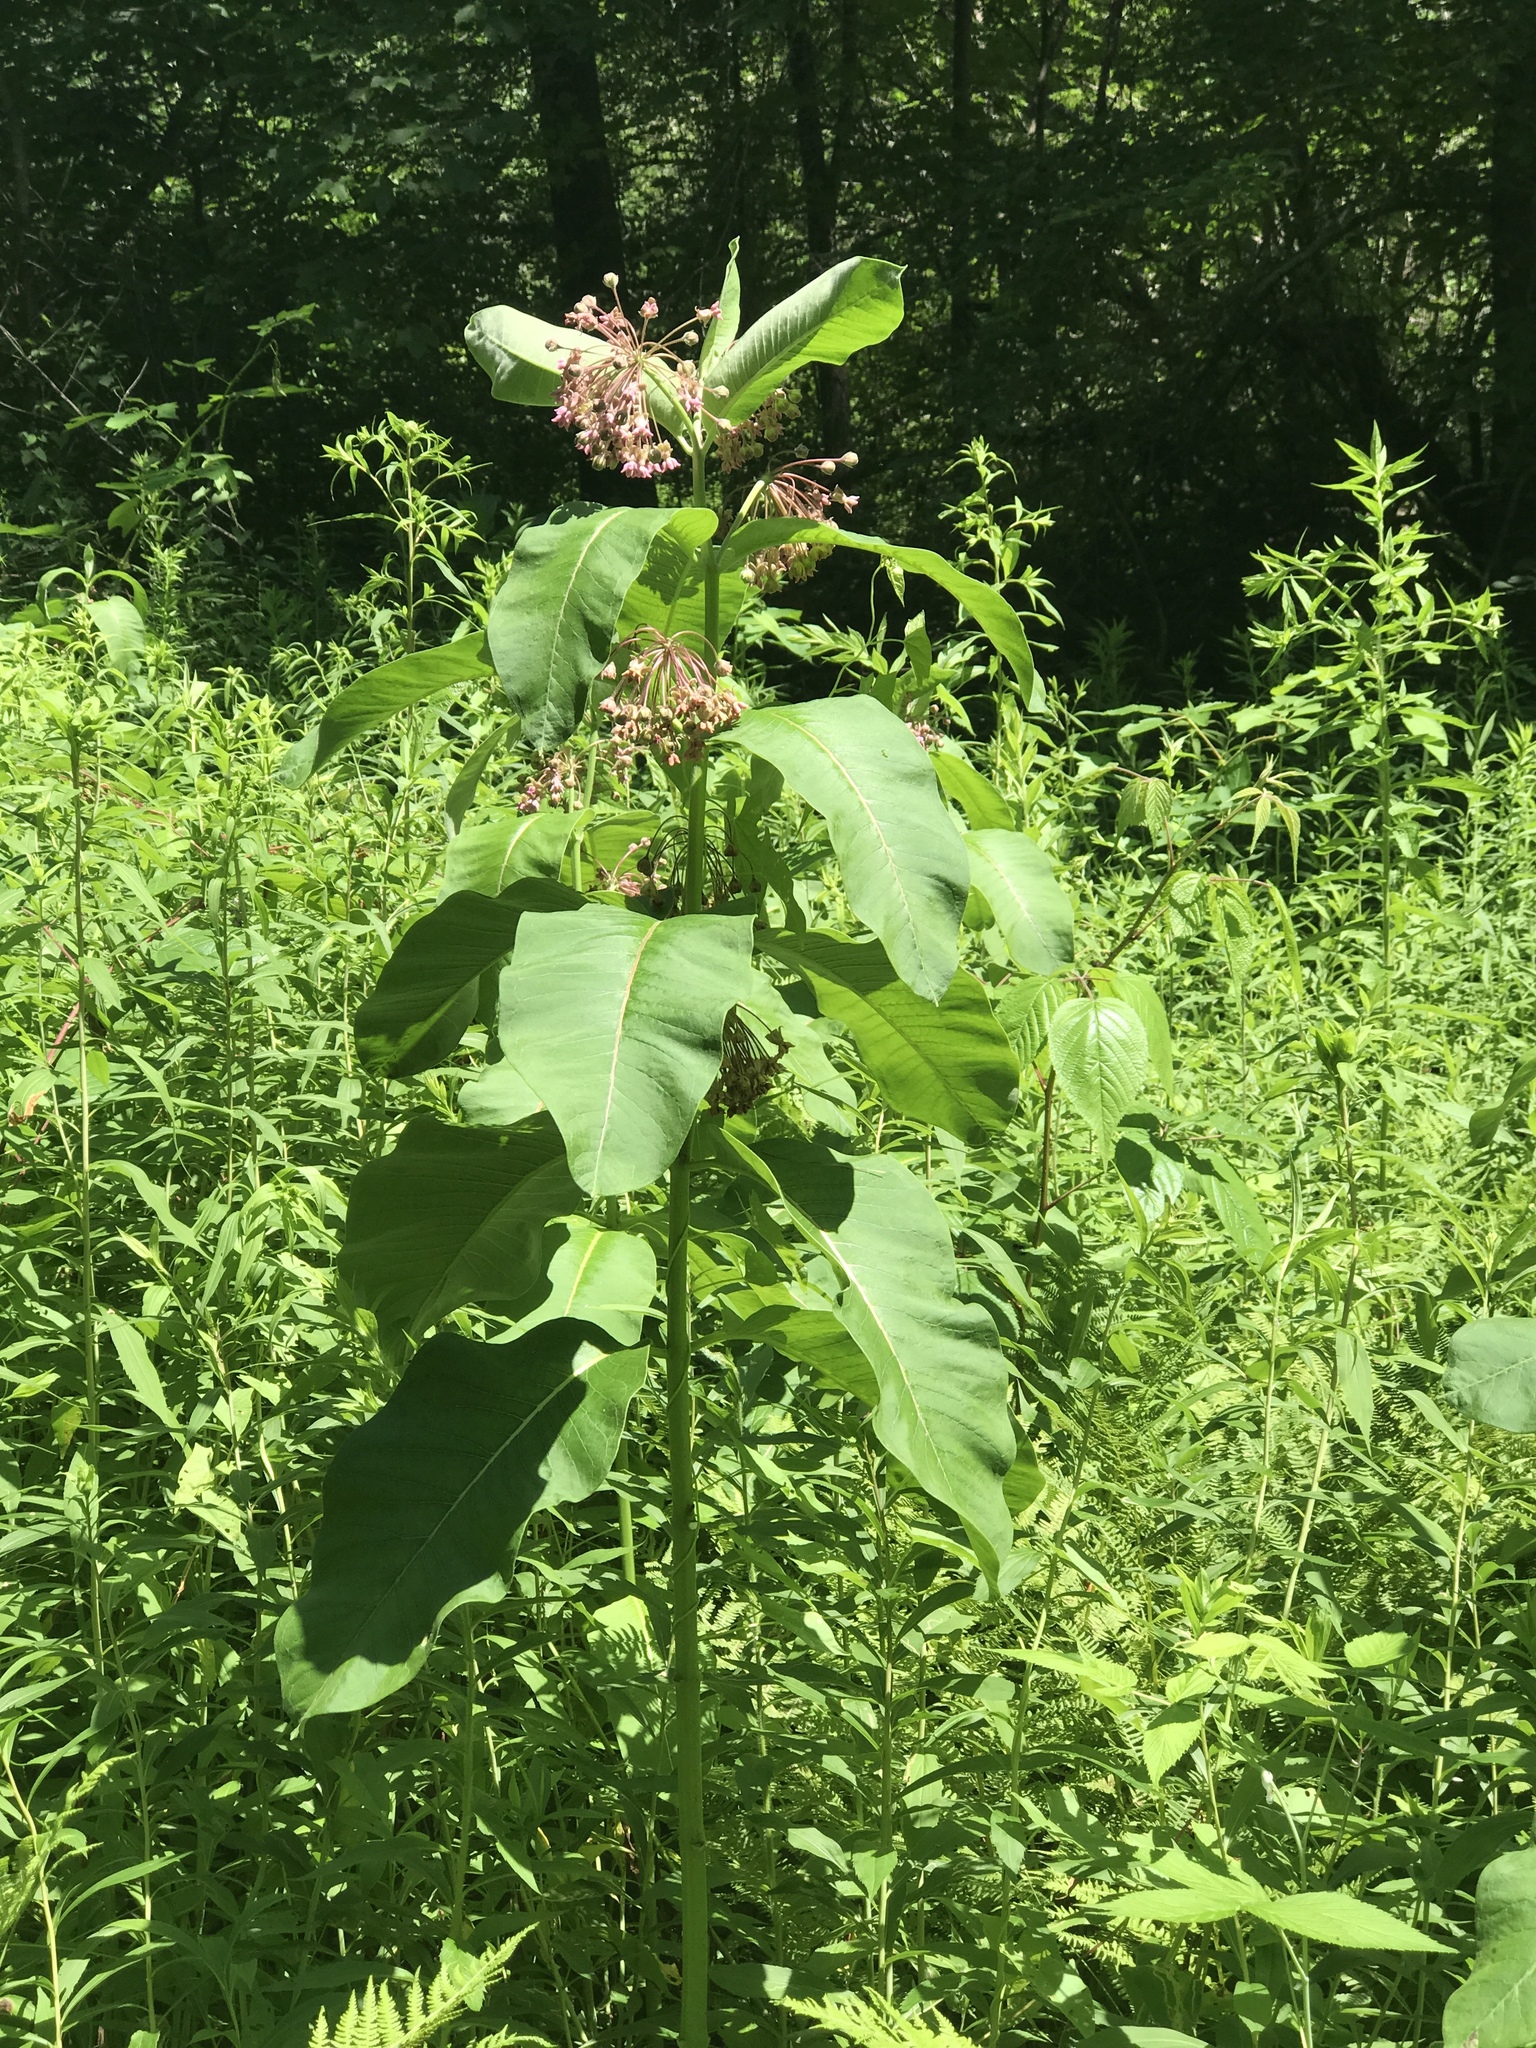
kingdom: Plantae
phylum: Tracheophyta
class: Magnoliopsida
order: Gentianales
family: Apocynaceae
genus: Asclepias
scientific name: Asclepias syriaca
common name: Common milkweed
